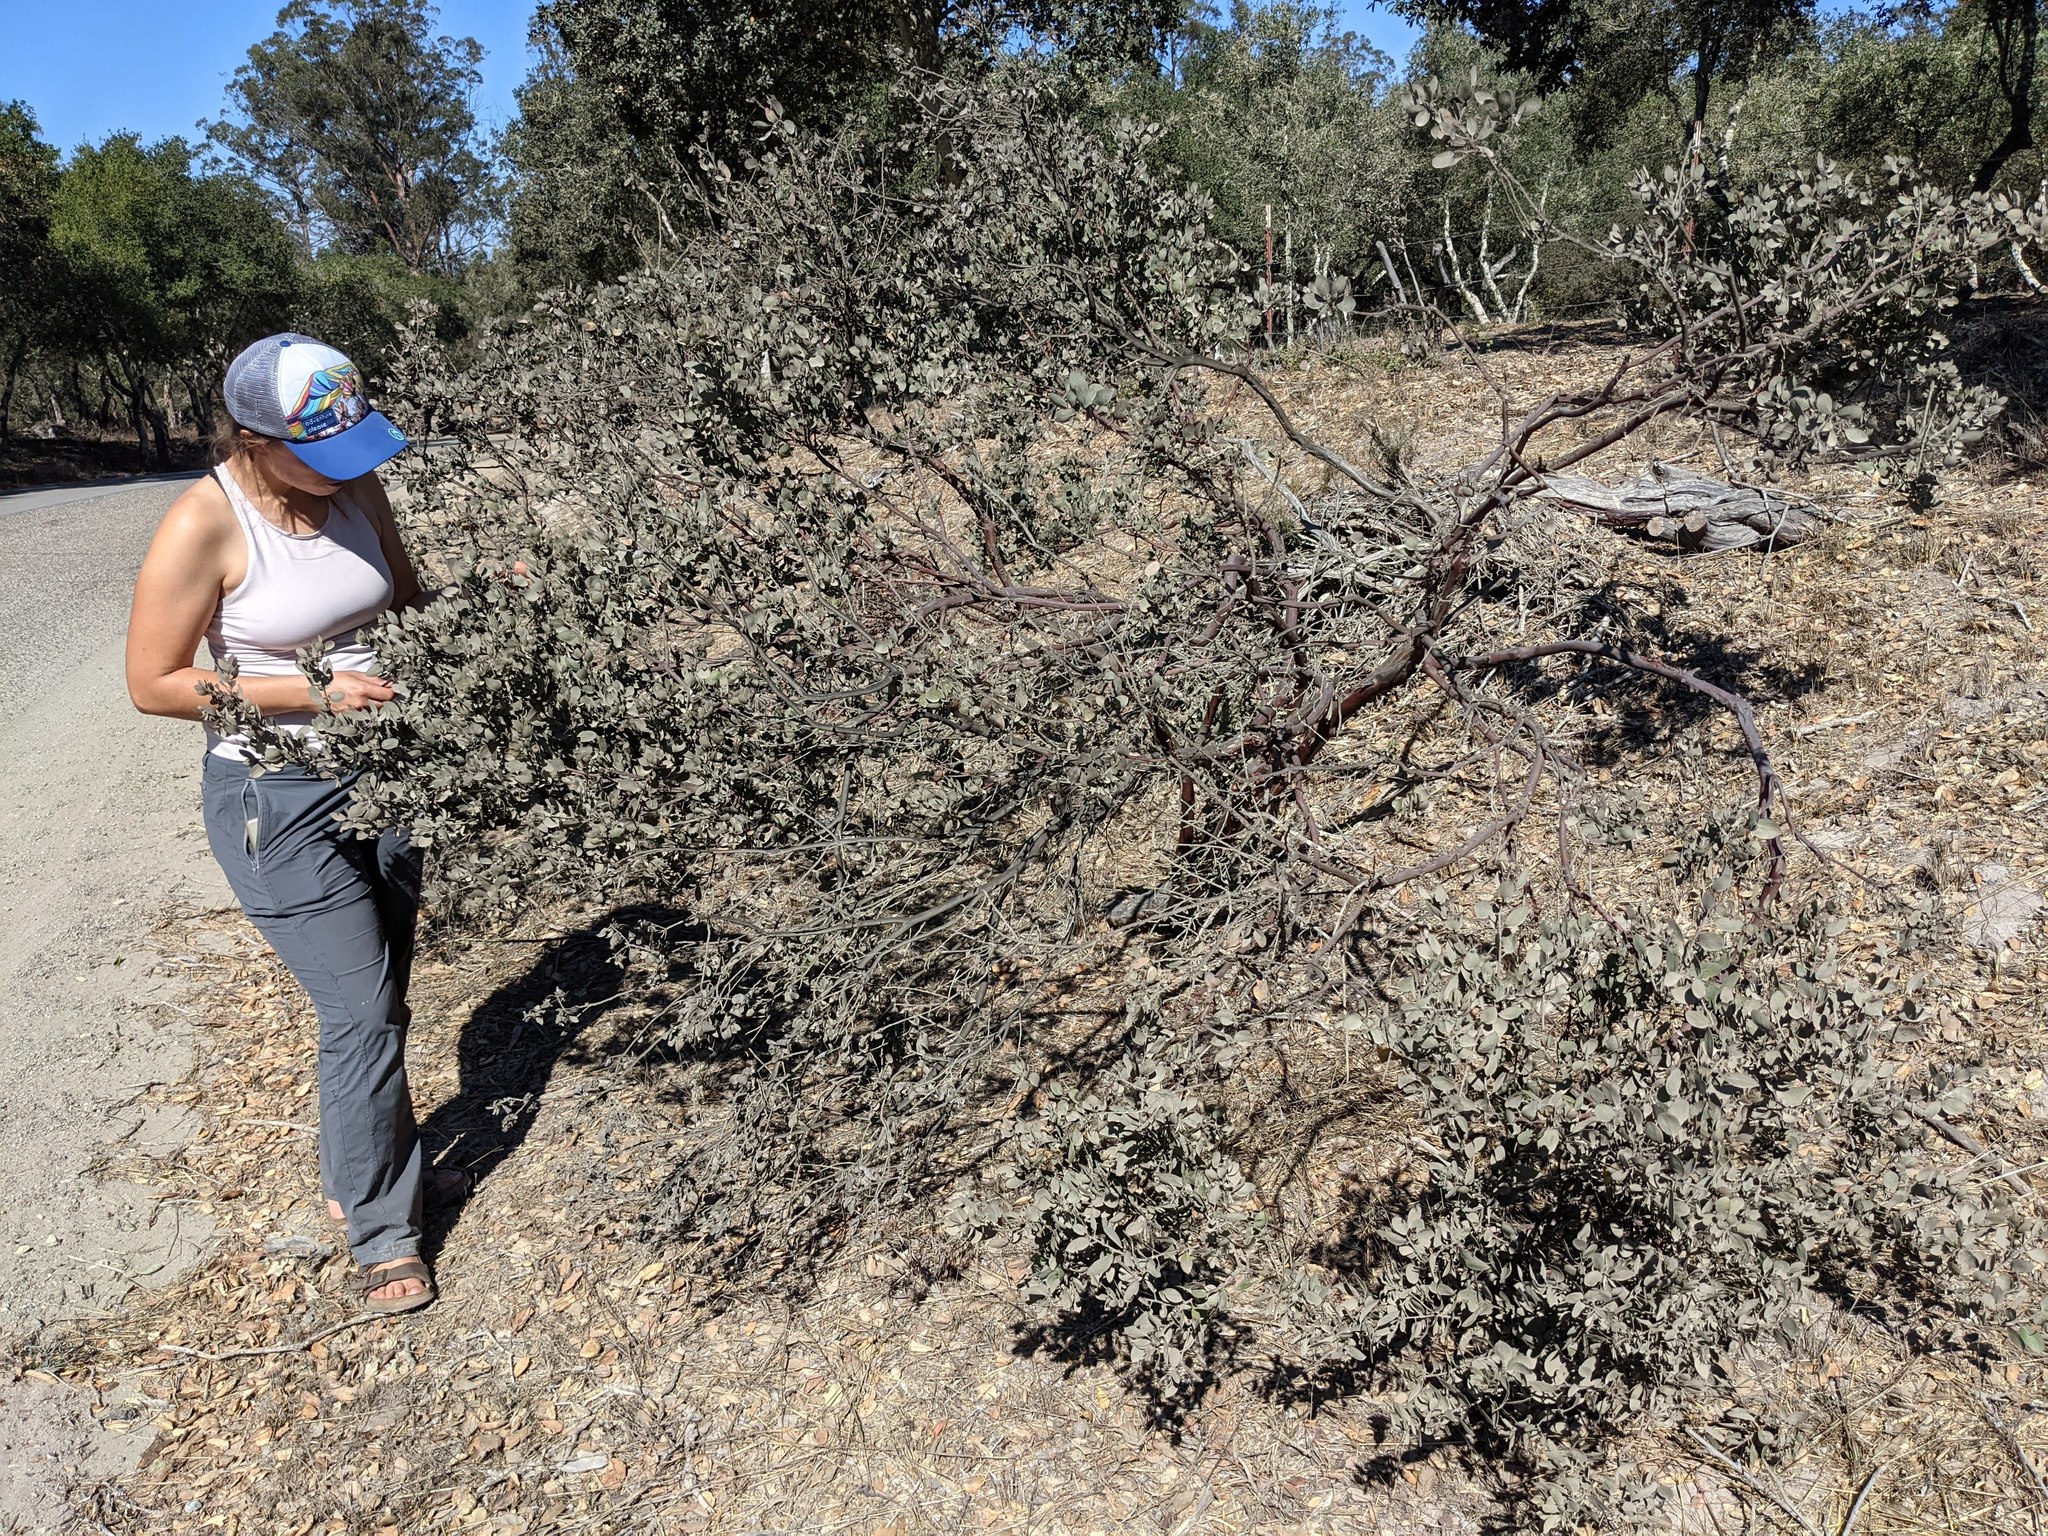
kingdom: Plantae
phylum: Tracheophyta
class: Magnoliopsida
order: Ericales
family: Ericaceae
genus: Arctostaphylos
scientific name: Arctostaphylos pilosula
